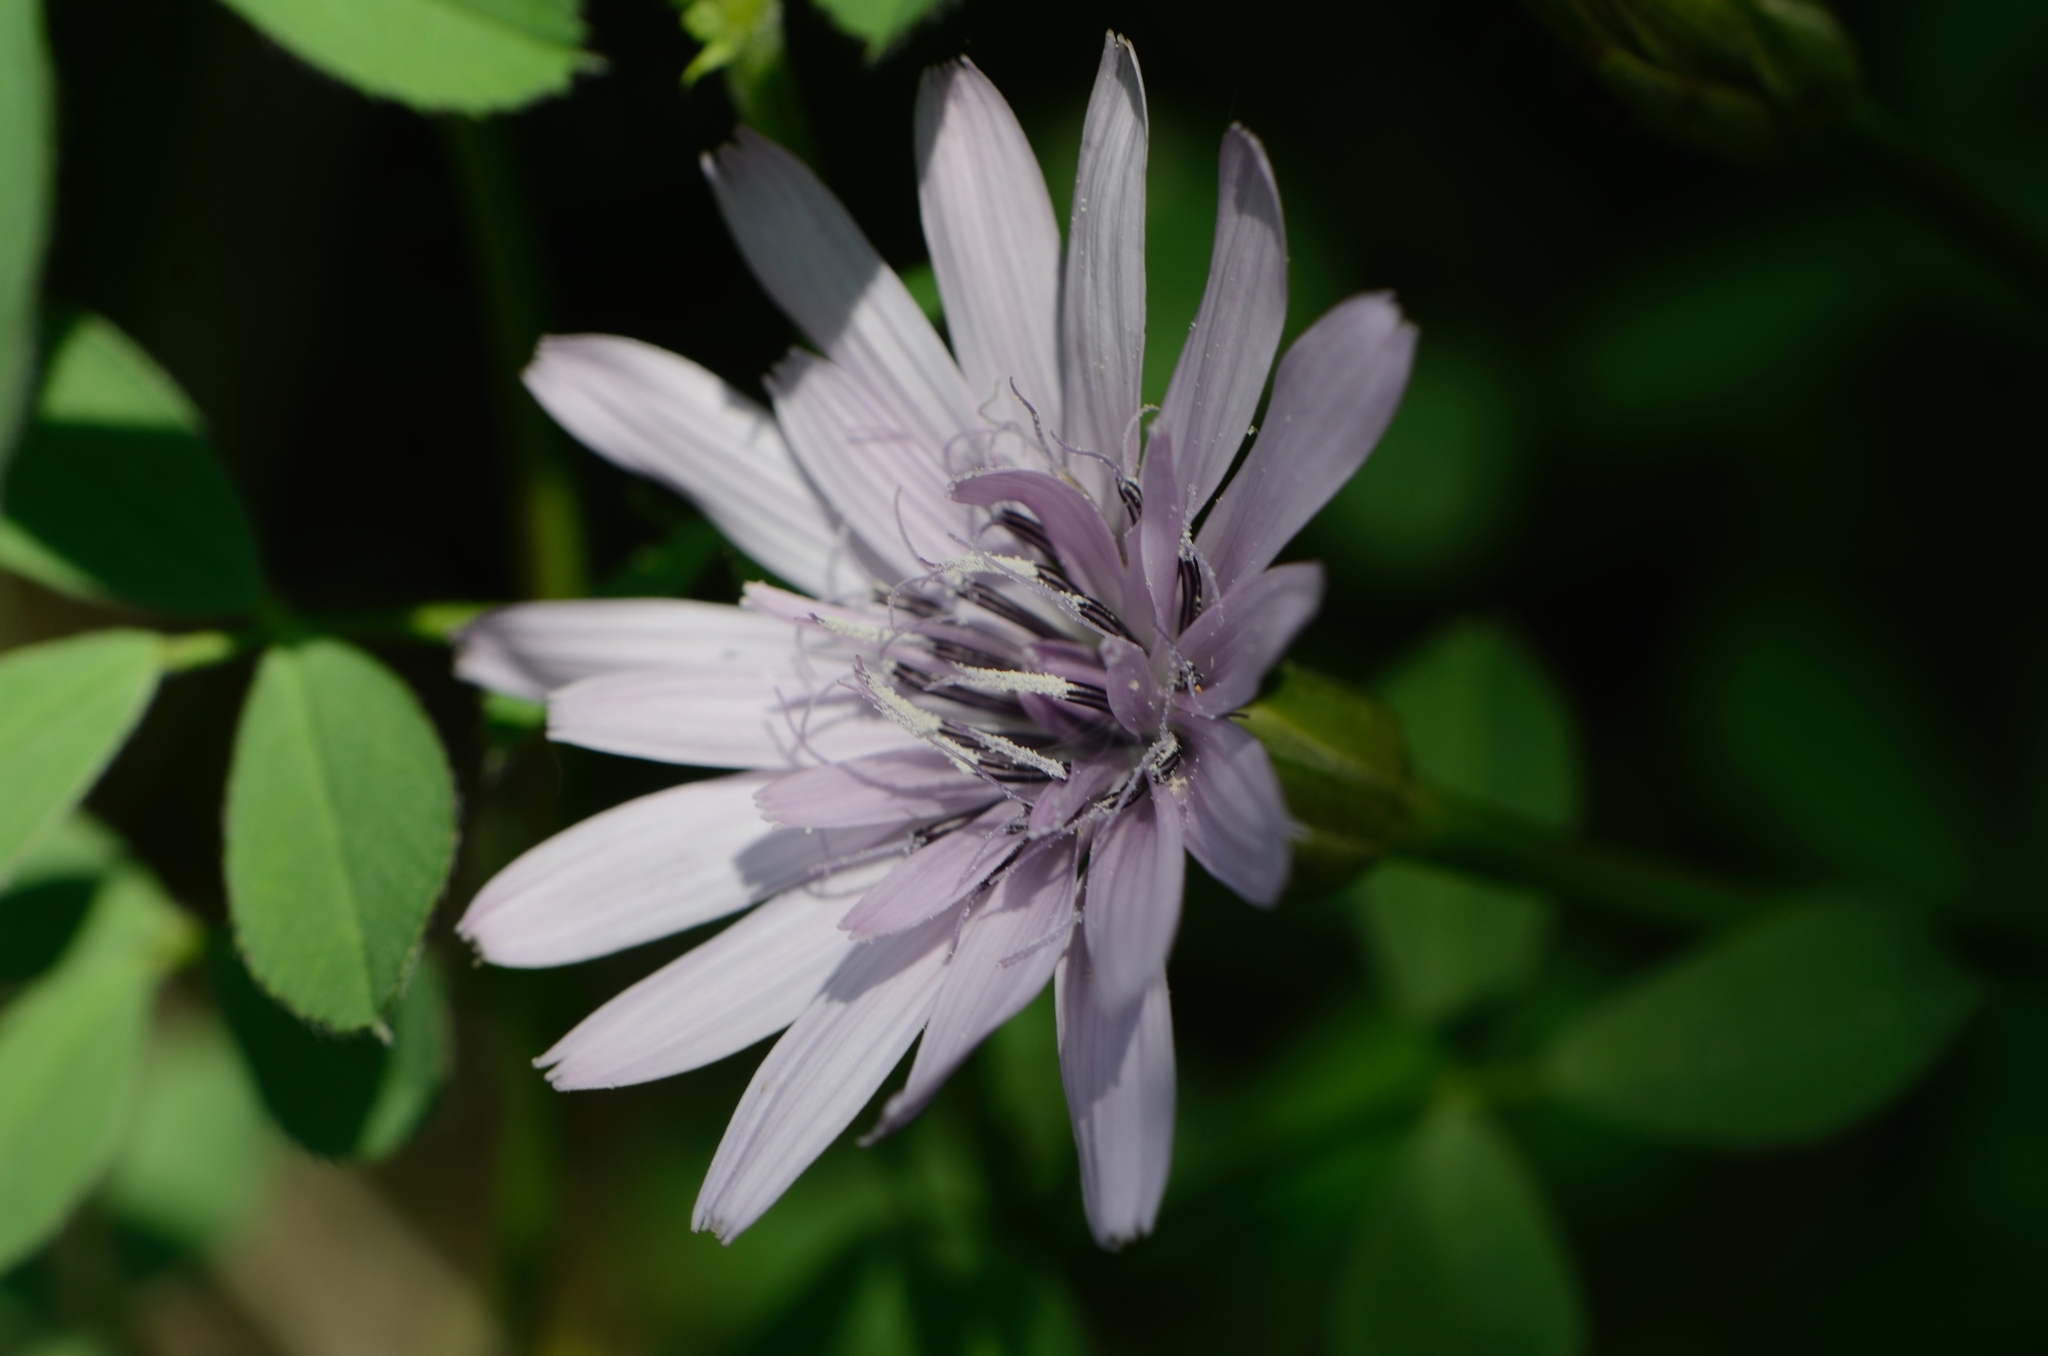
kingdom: Plantae
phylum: Tracheophyta
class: Magnoliopsida
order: Asterales
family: Asteraceae
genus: Scorzonera
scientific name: Scorzonera purpurea
